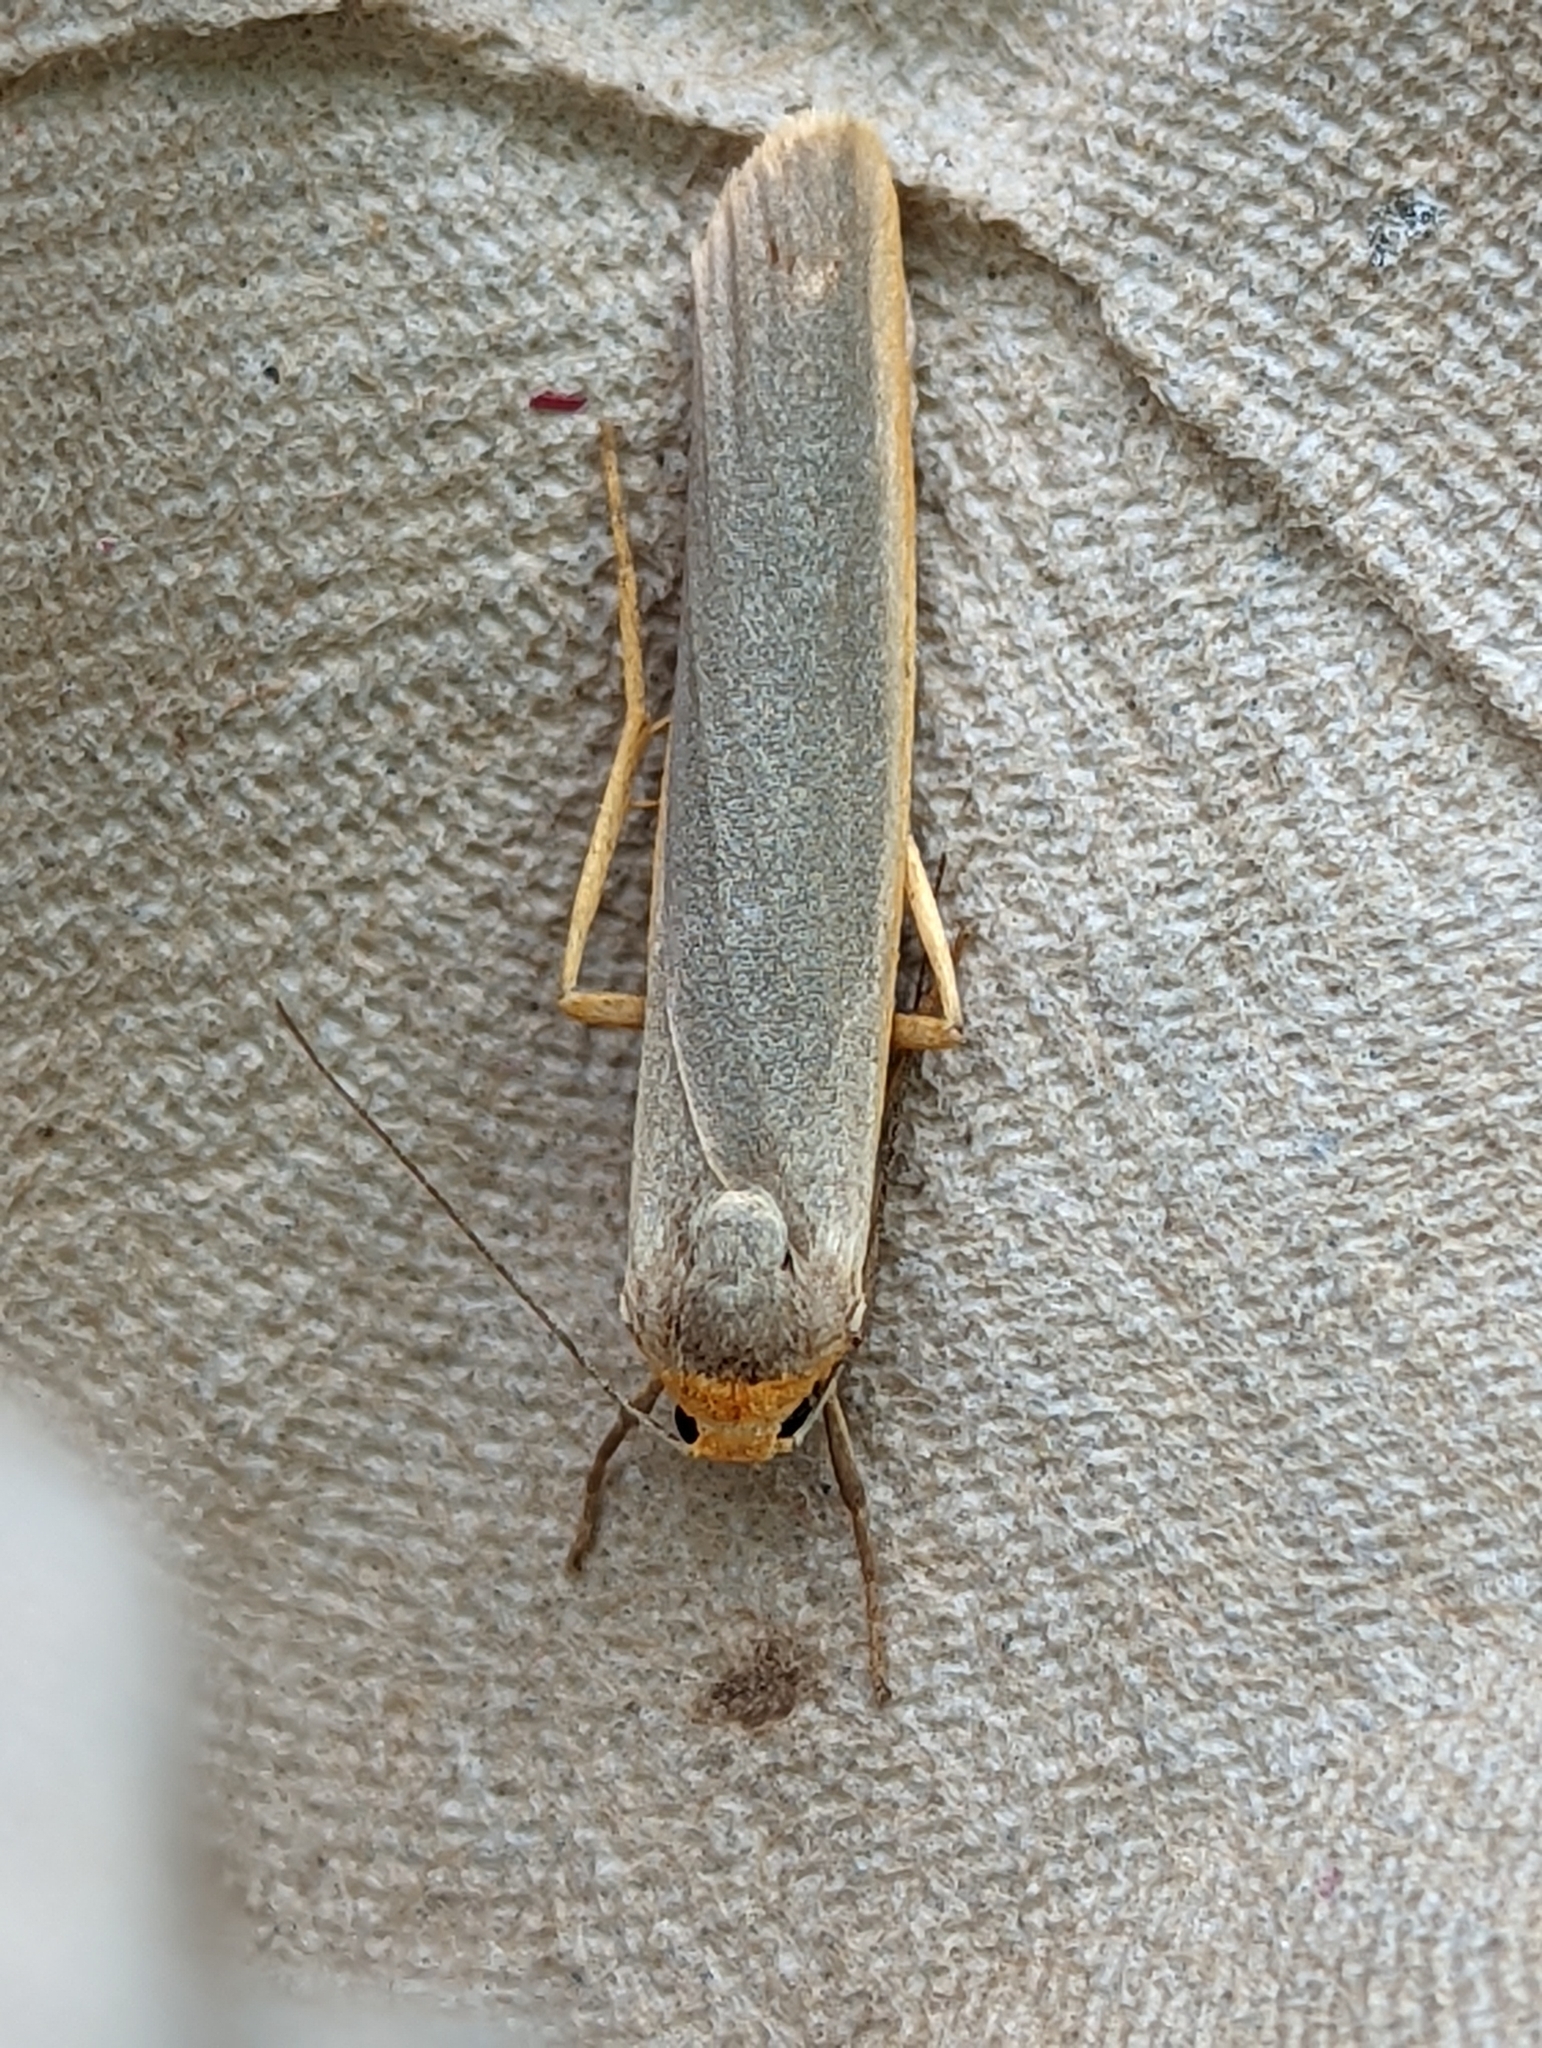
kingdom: Animalia
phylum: Arthropoda
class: Insecta
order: Lepidoptera
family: Erebidae
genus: Manulea
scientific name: Manulea complana
